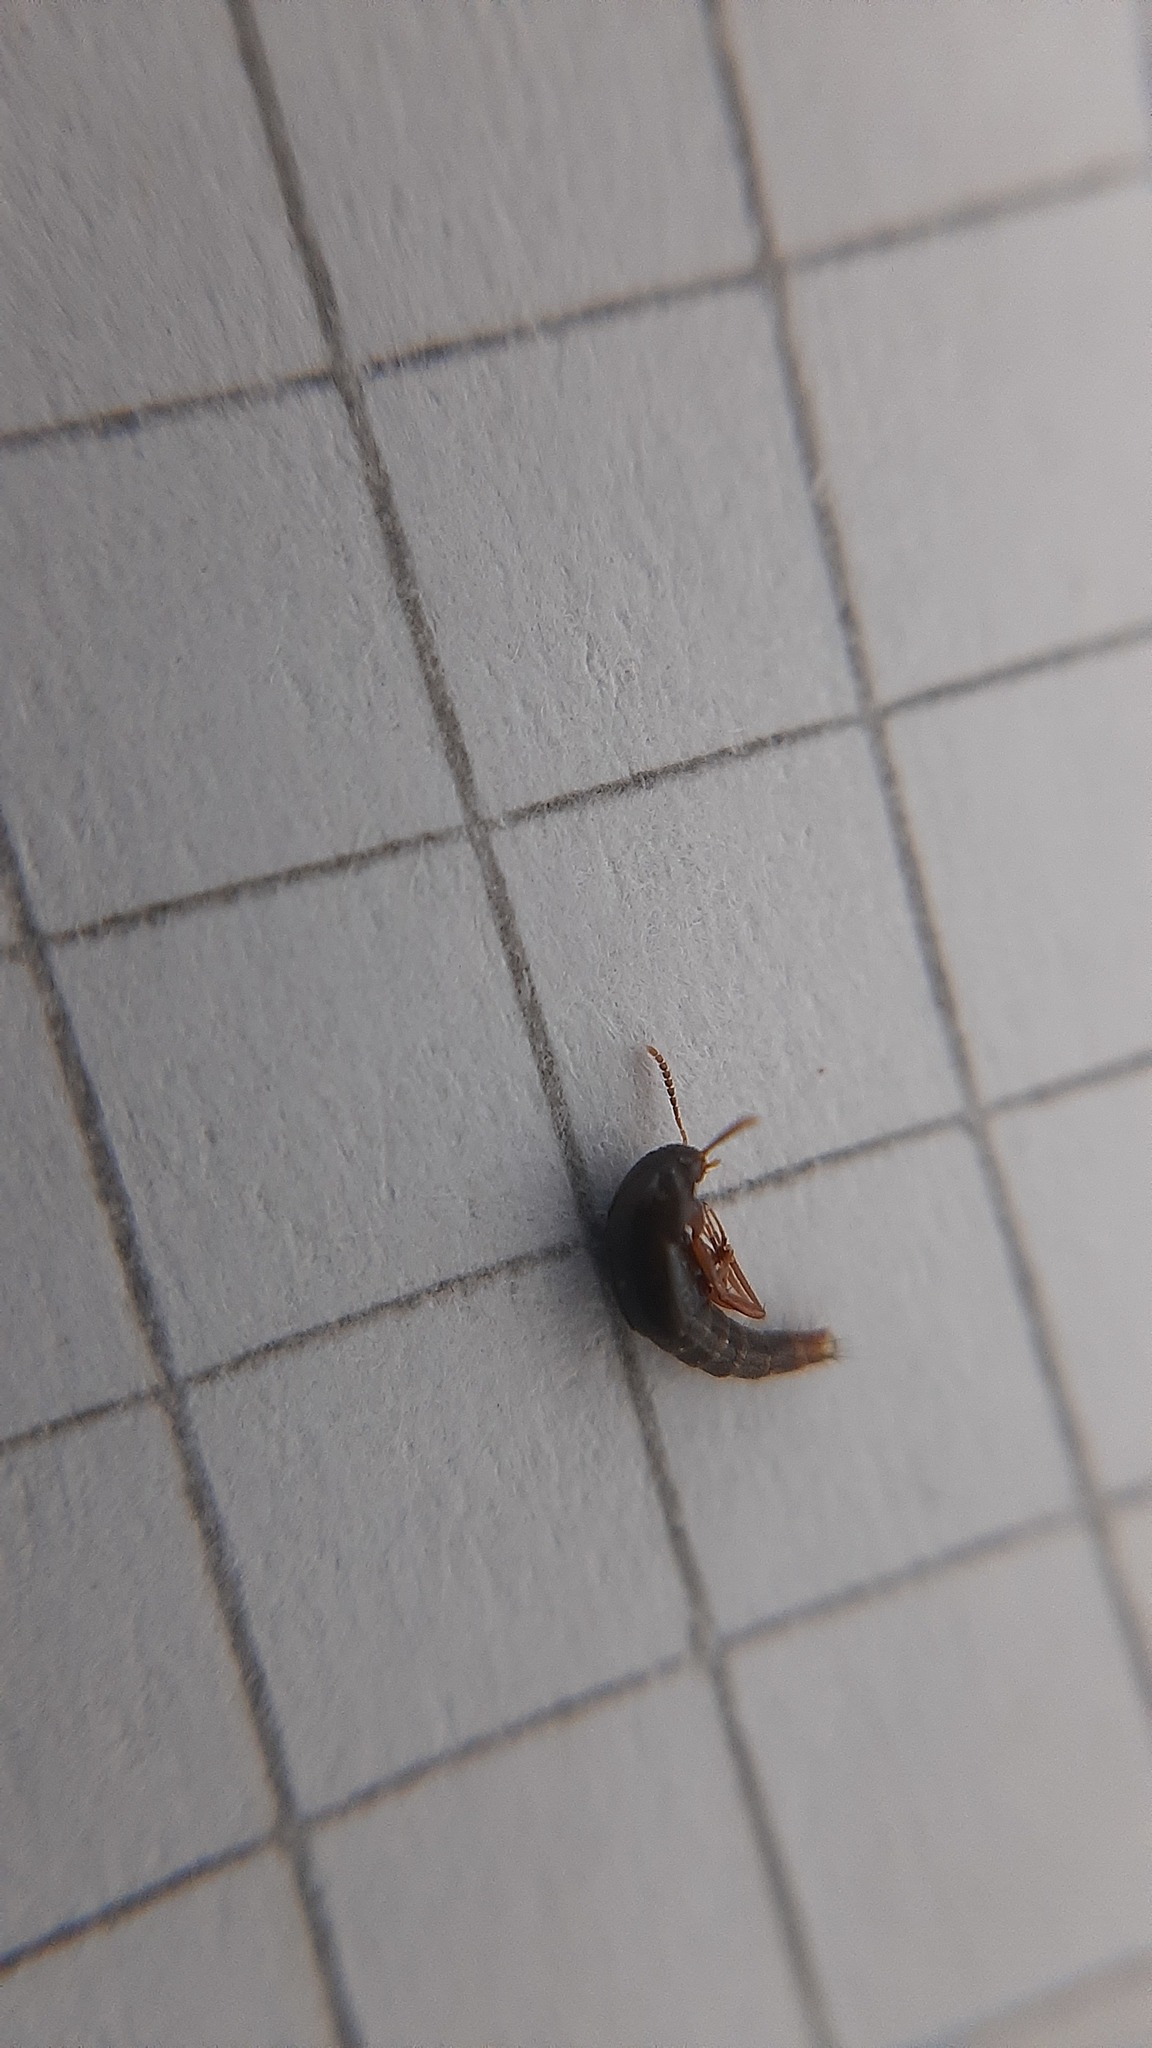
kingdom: Animalia
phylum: Arthropoda
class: Insecta
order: Coleoptera
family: Staphylinidae
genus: Sepedophilus
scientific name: Sepedophilus immaculatus
